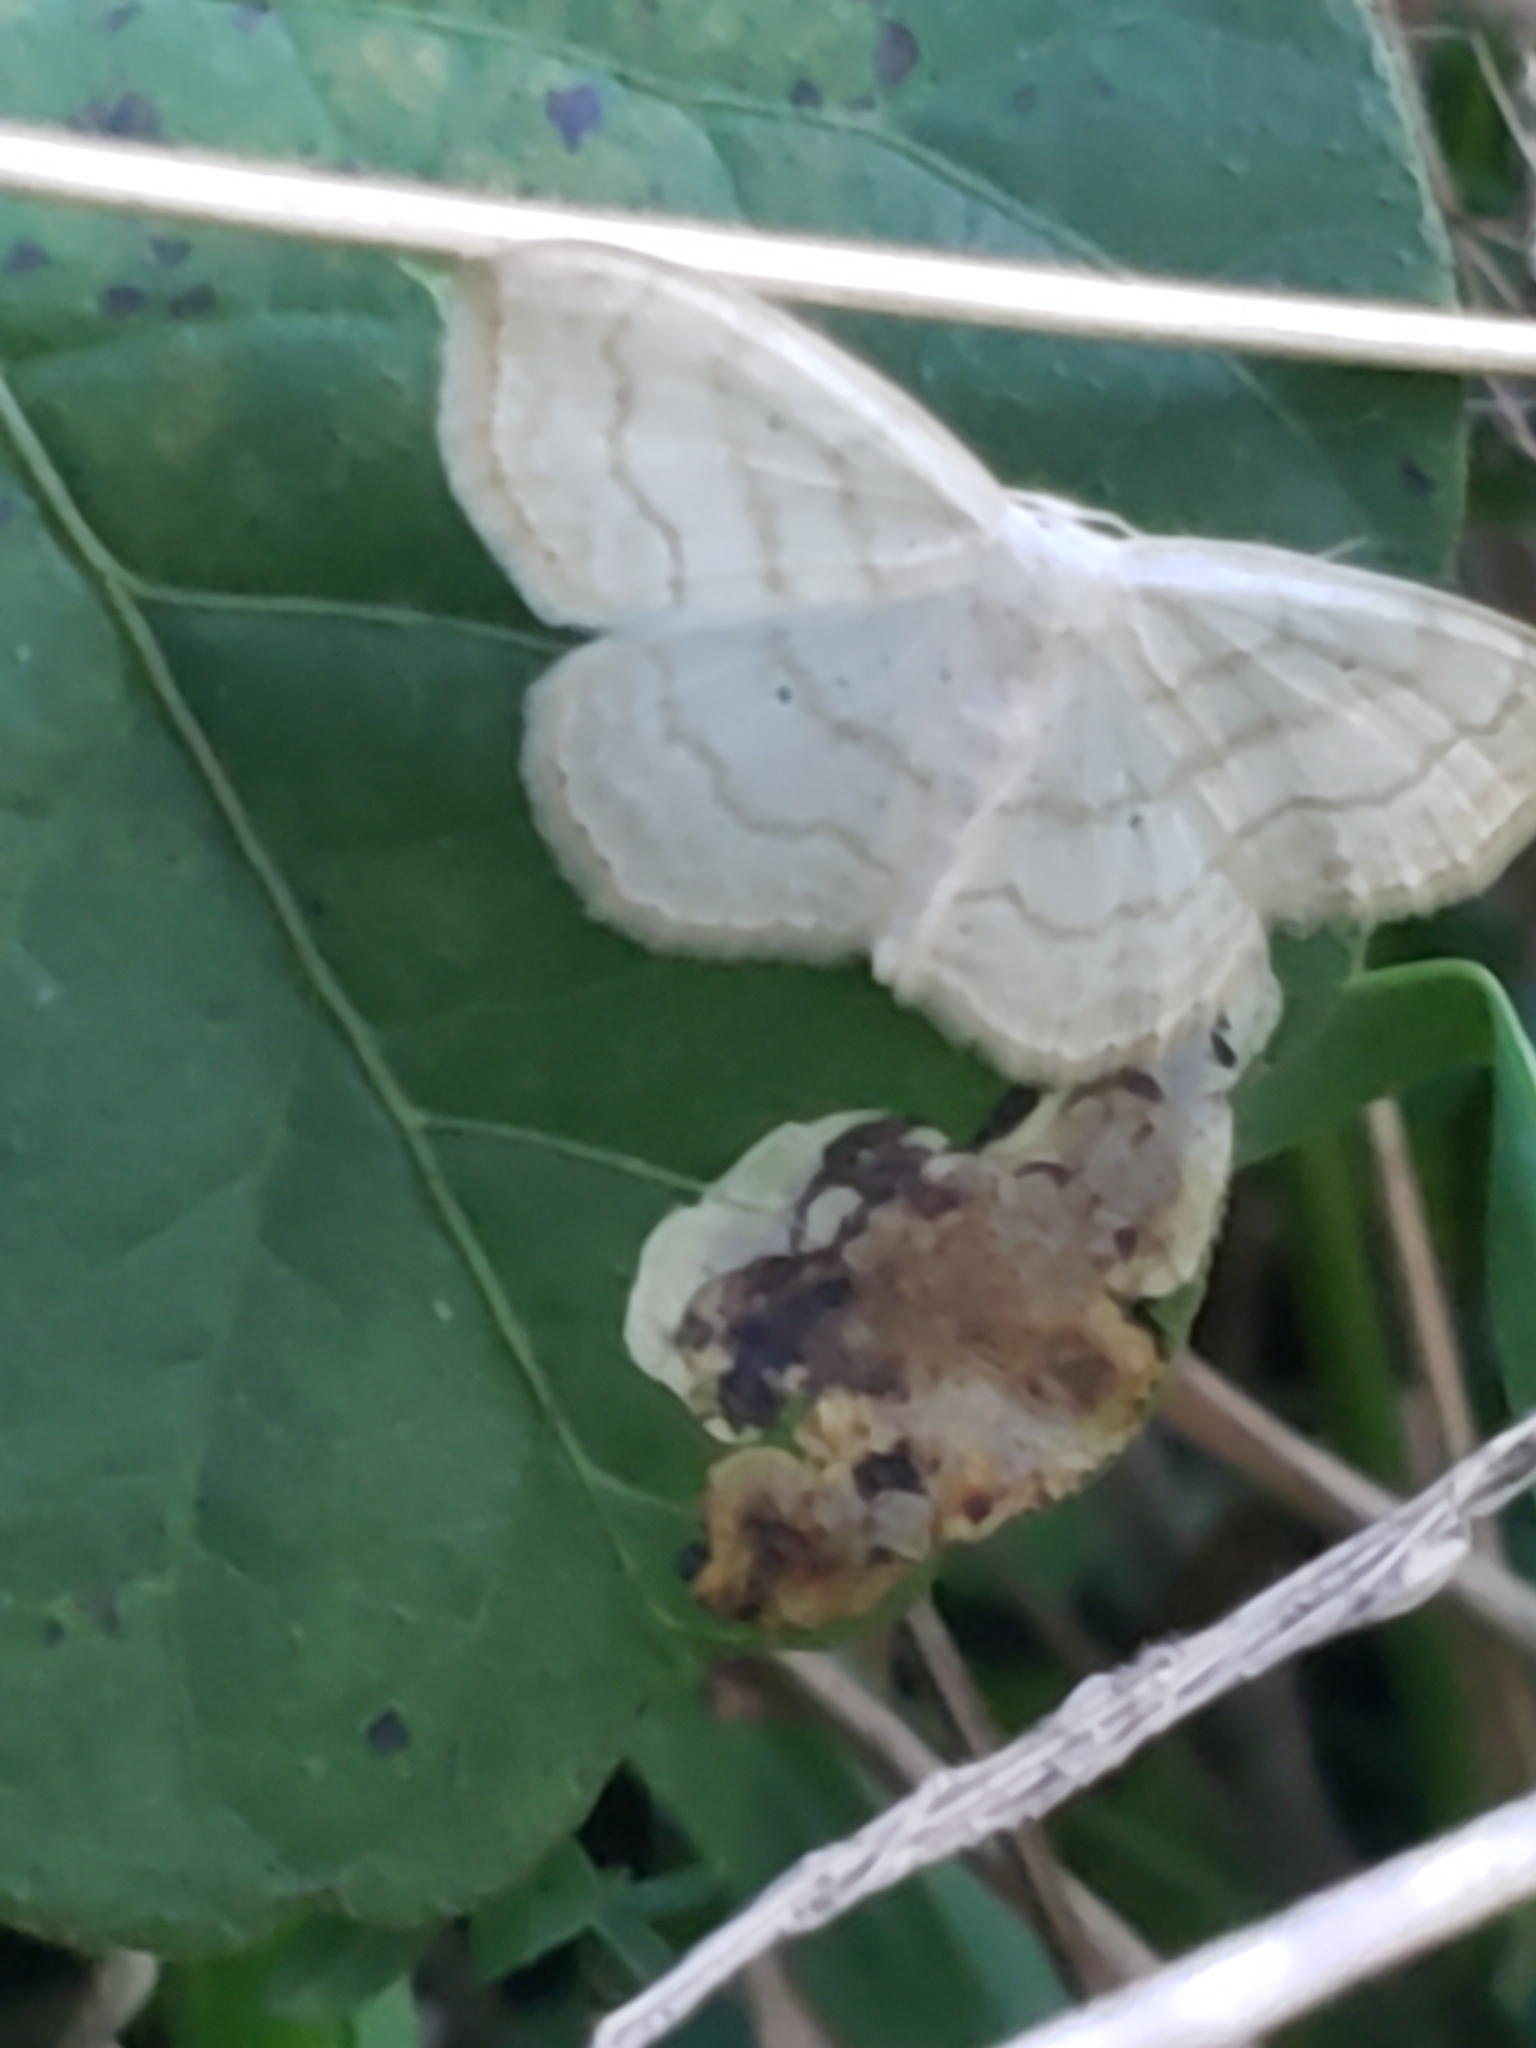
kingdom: Animalia
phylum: Arthropoda
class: Insecta
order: Lepidoptera
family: Geometridae
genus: Scopula
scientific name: Scopula limboundata
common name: Large lace border
